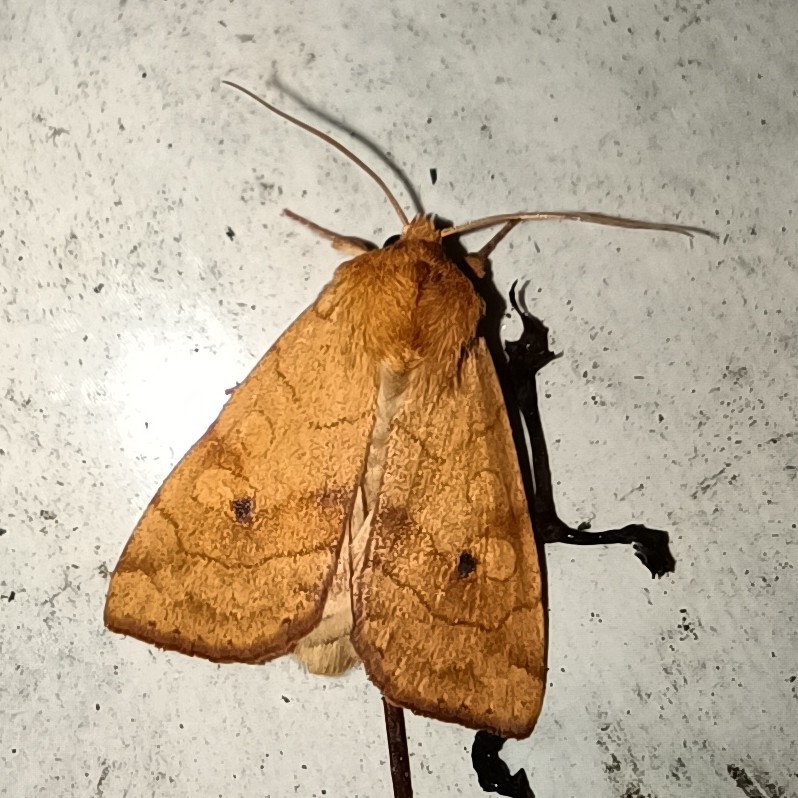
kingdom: Animalia
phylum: Arthropoda
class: Insecta
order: Lepidoptera
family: Noctuidae
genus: Enargia
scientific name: Enargia paleacea
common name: Angle-striped sallow
